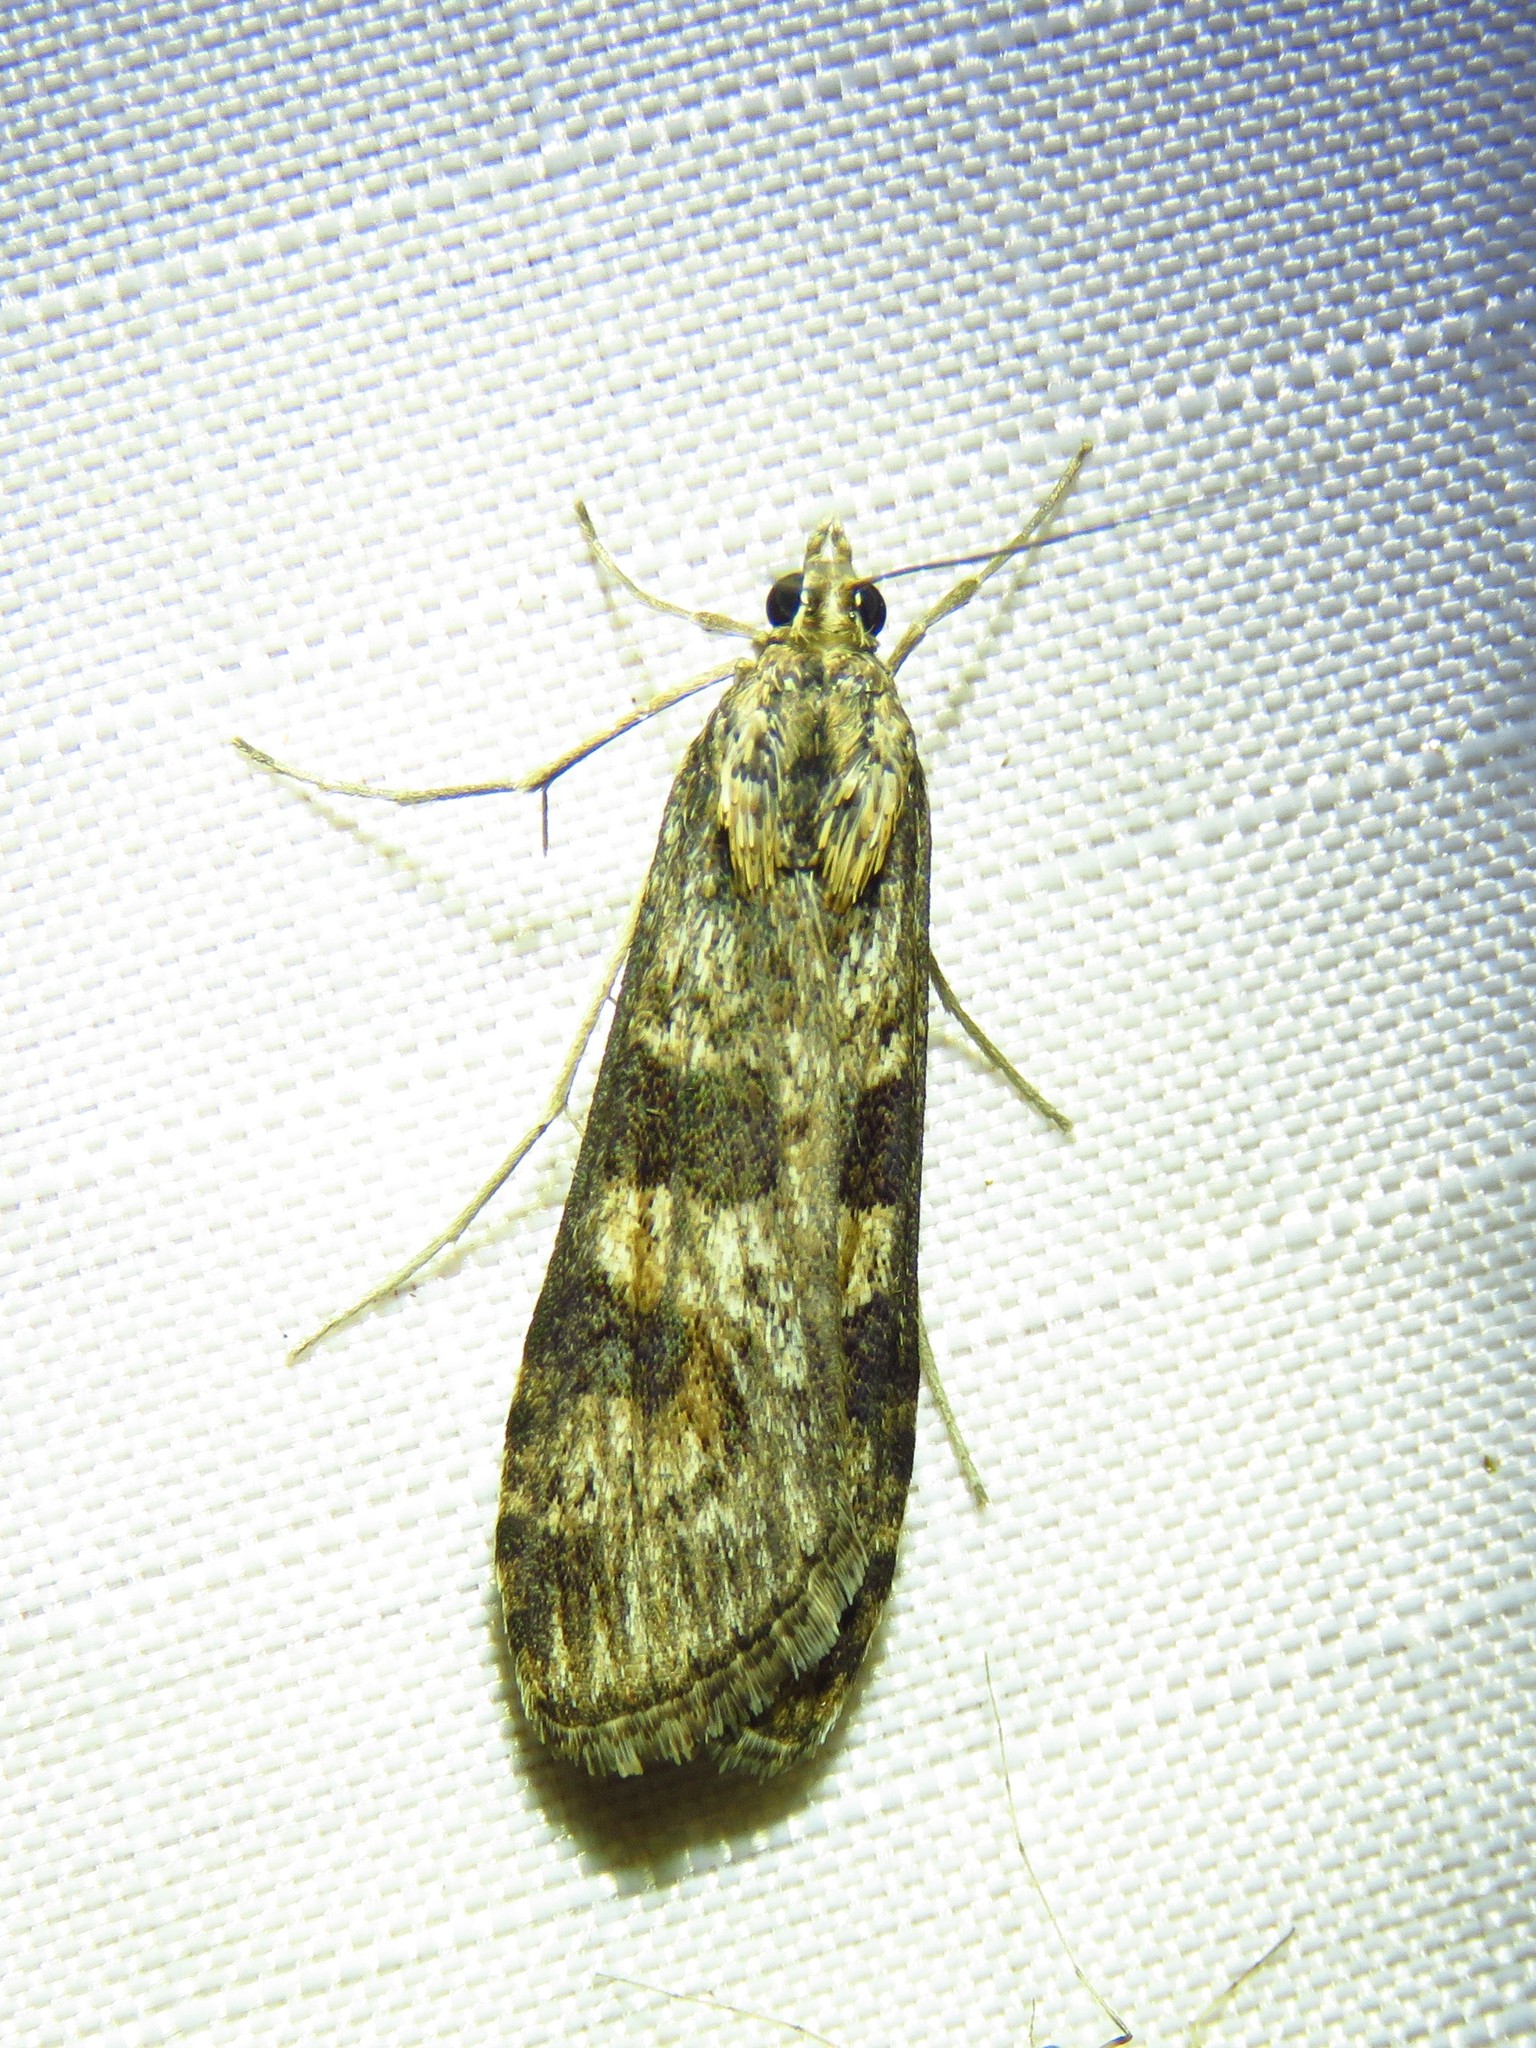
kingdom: Animalia
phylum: Arthropoda
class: Insecta
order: Lepidoptera
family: Crambidae
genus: Nomophila
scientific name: Nomophila nearctica
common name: American rush veneer
